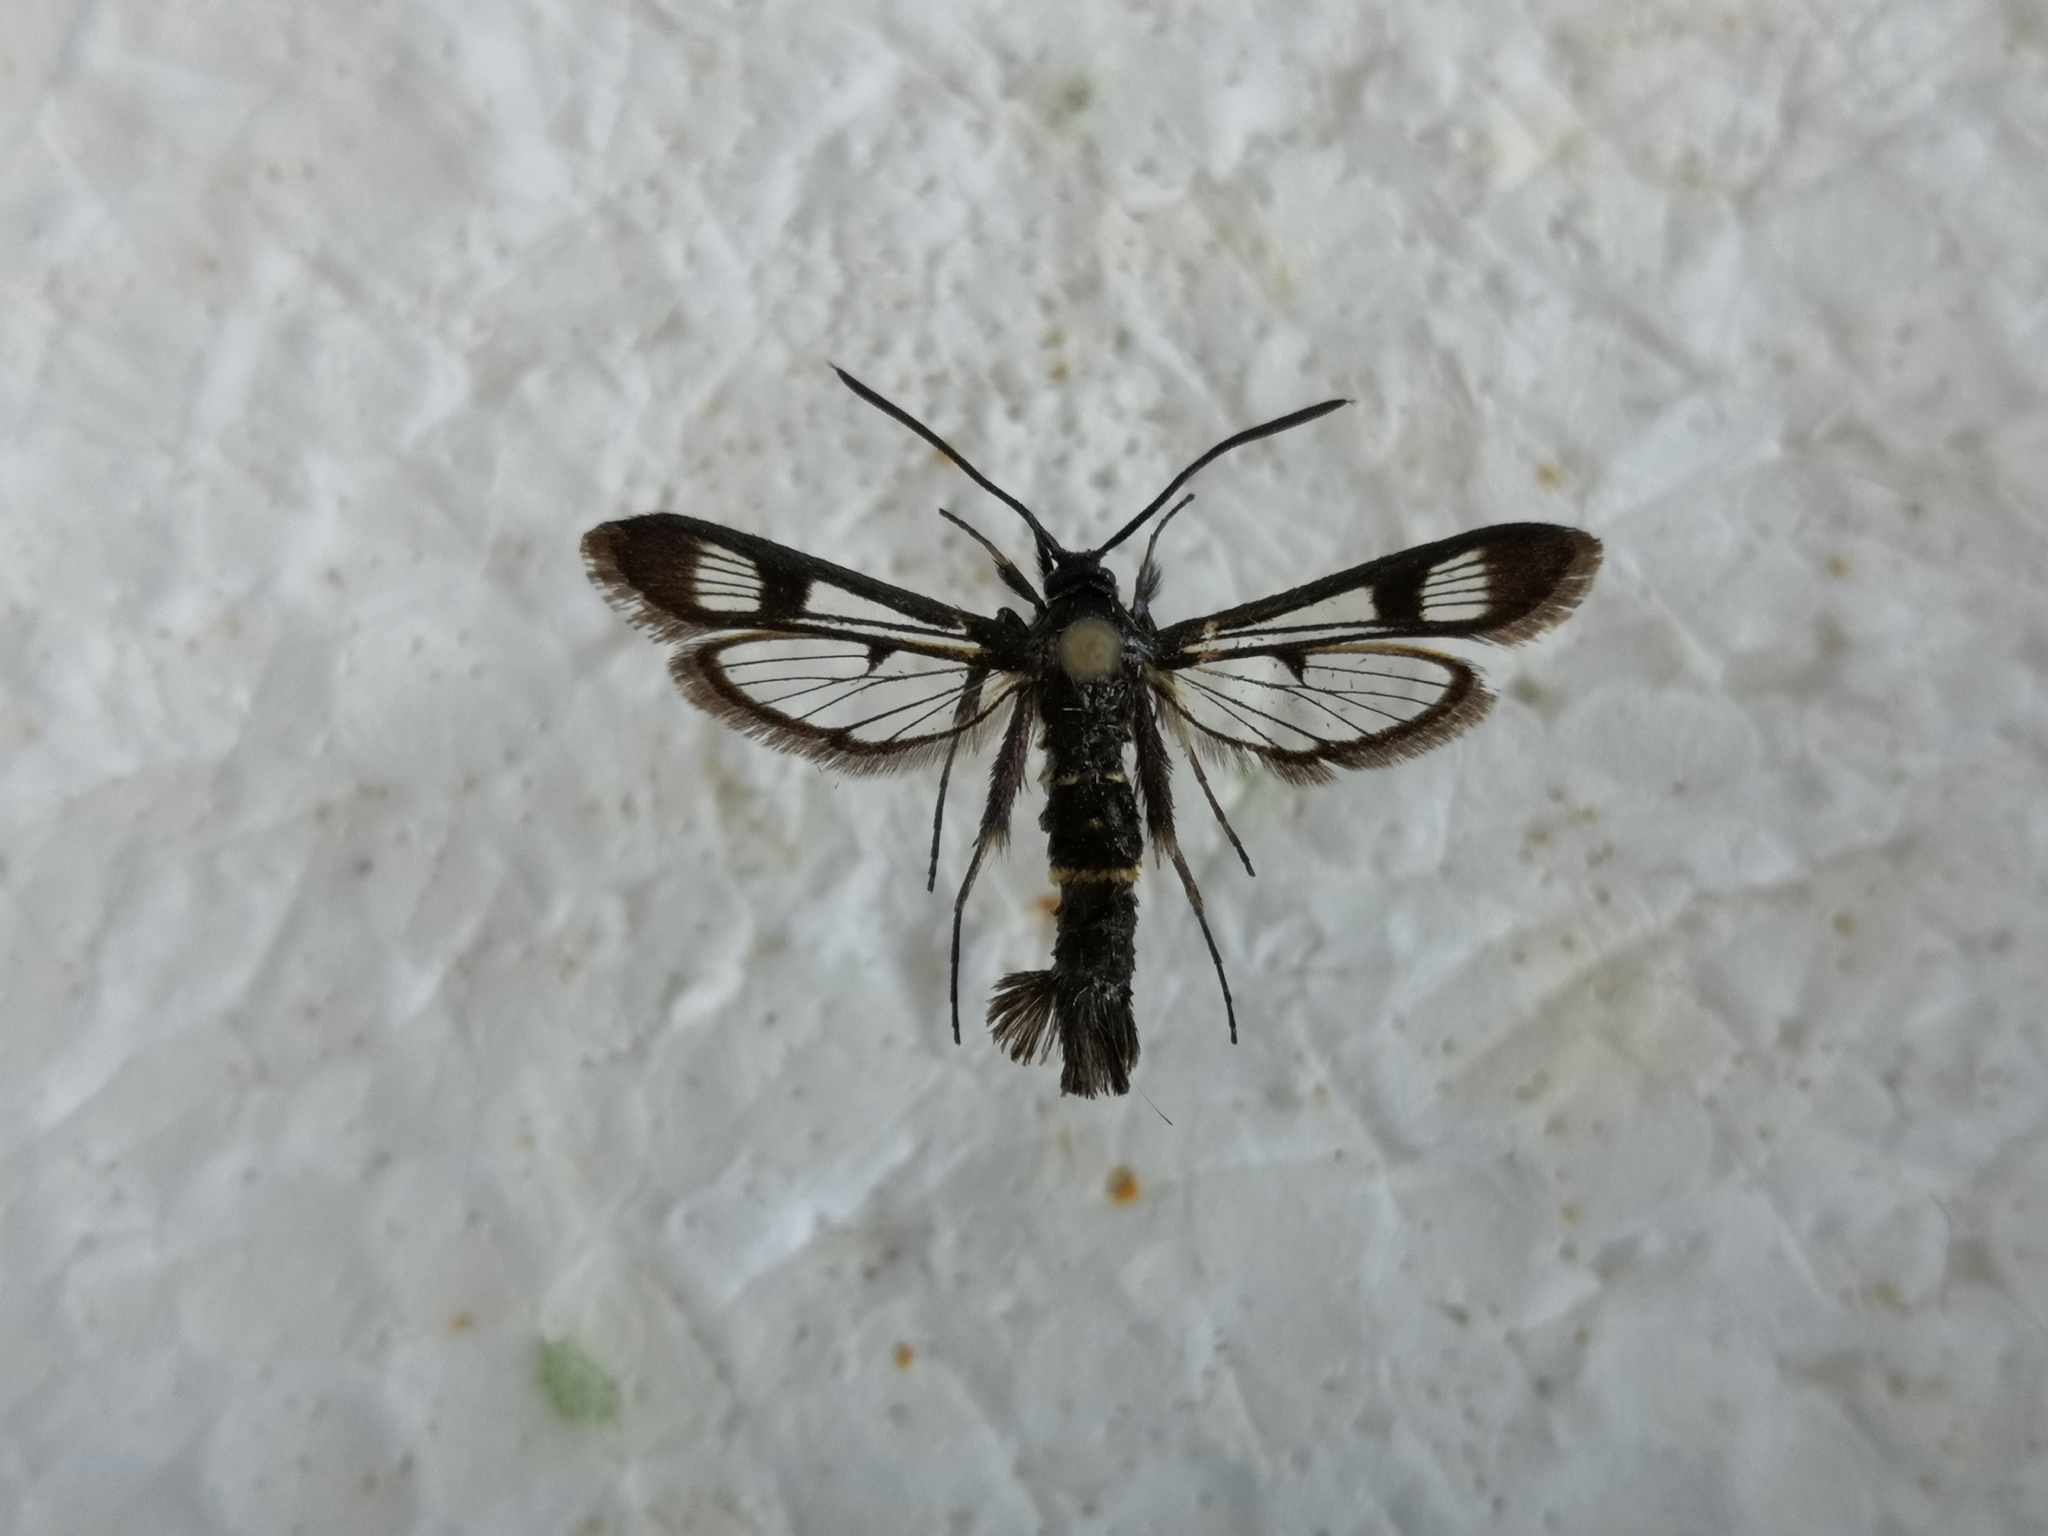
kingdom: Animalia
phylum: Arthropoda
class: Insecta
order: Lepidoptera
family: Sesiidae
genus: Synanthedon
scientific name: Synanthedon andrenaeformis
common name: Orange-tailed clearwing
